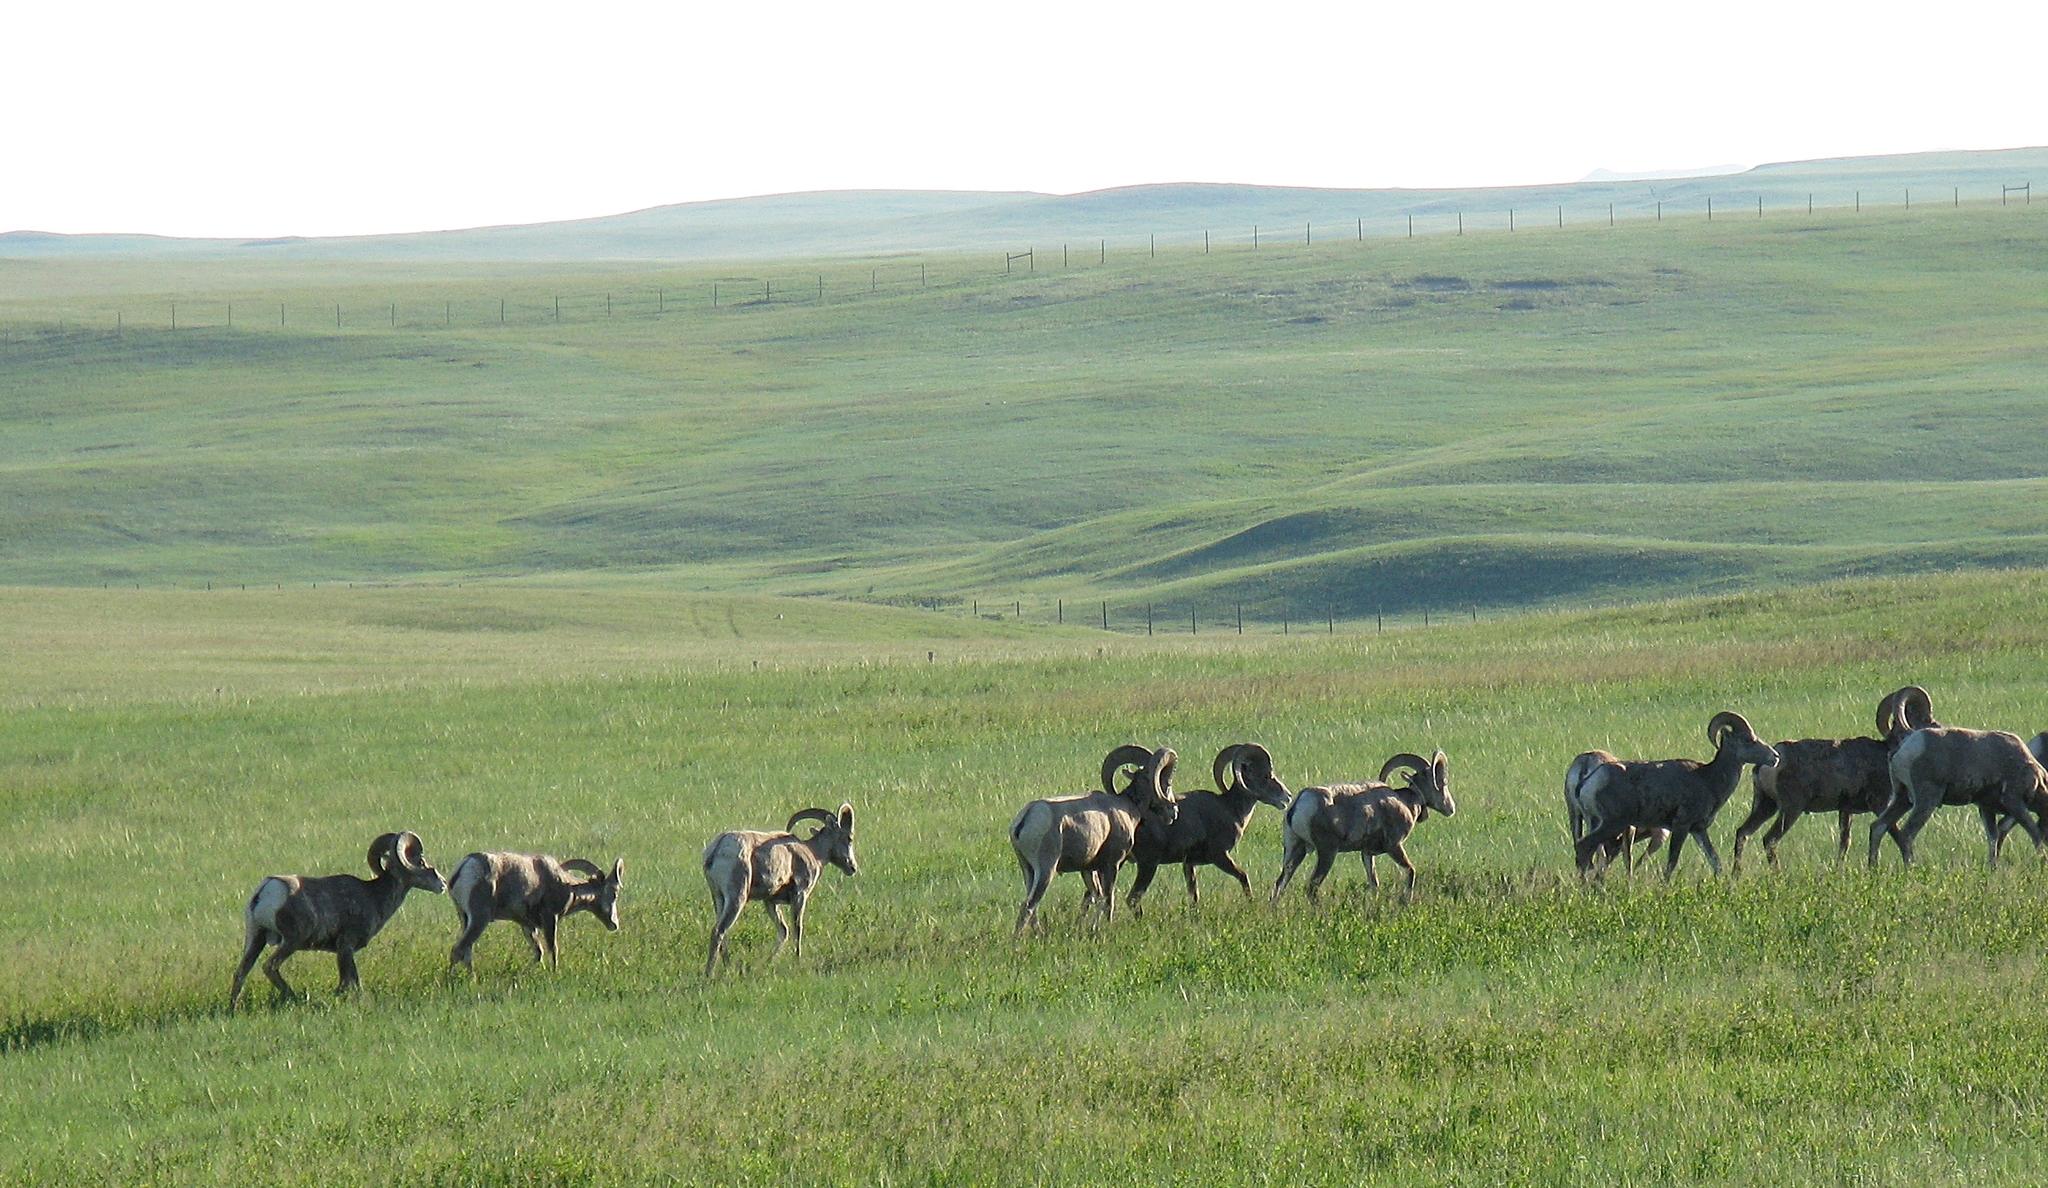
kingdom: Animalia
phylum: Chordata
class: Mammalia
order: Artiodactyla
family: Bovidae
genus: Ovis
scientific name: Ovis canadensis
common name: Bighorn sheep
